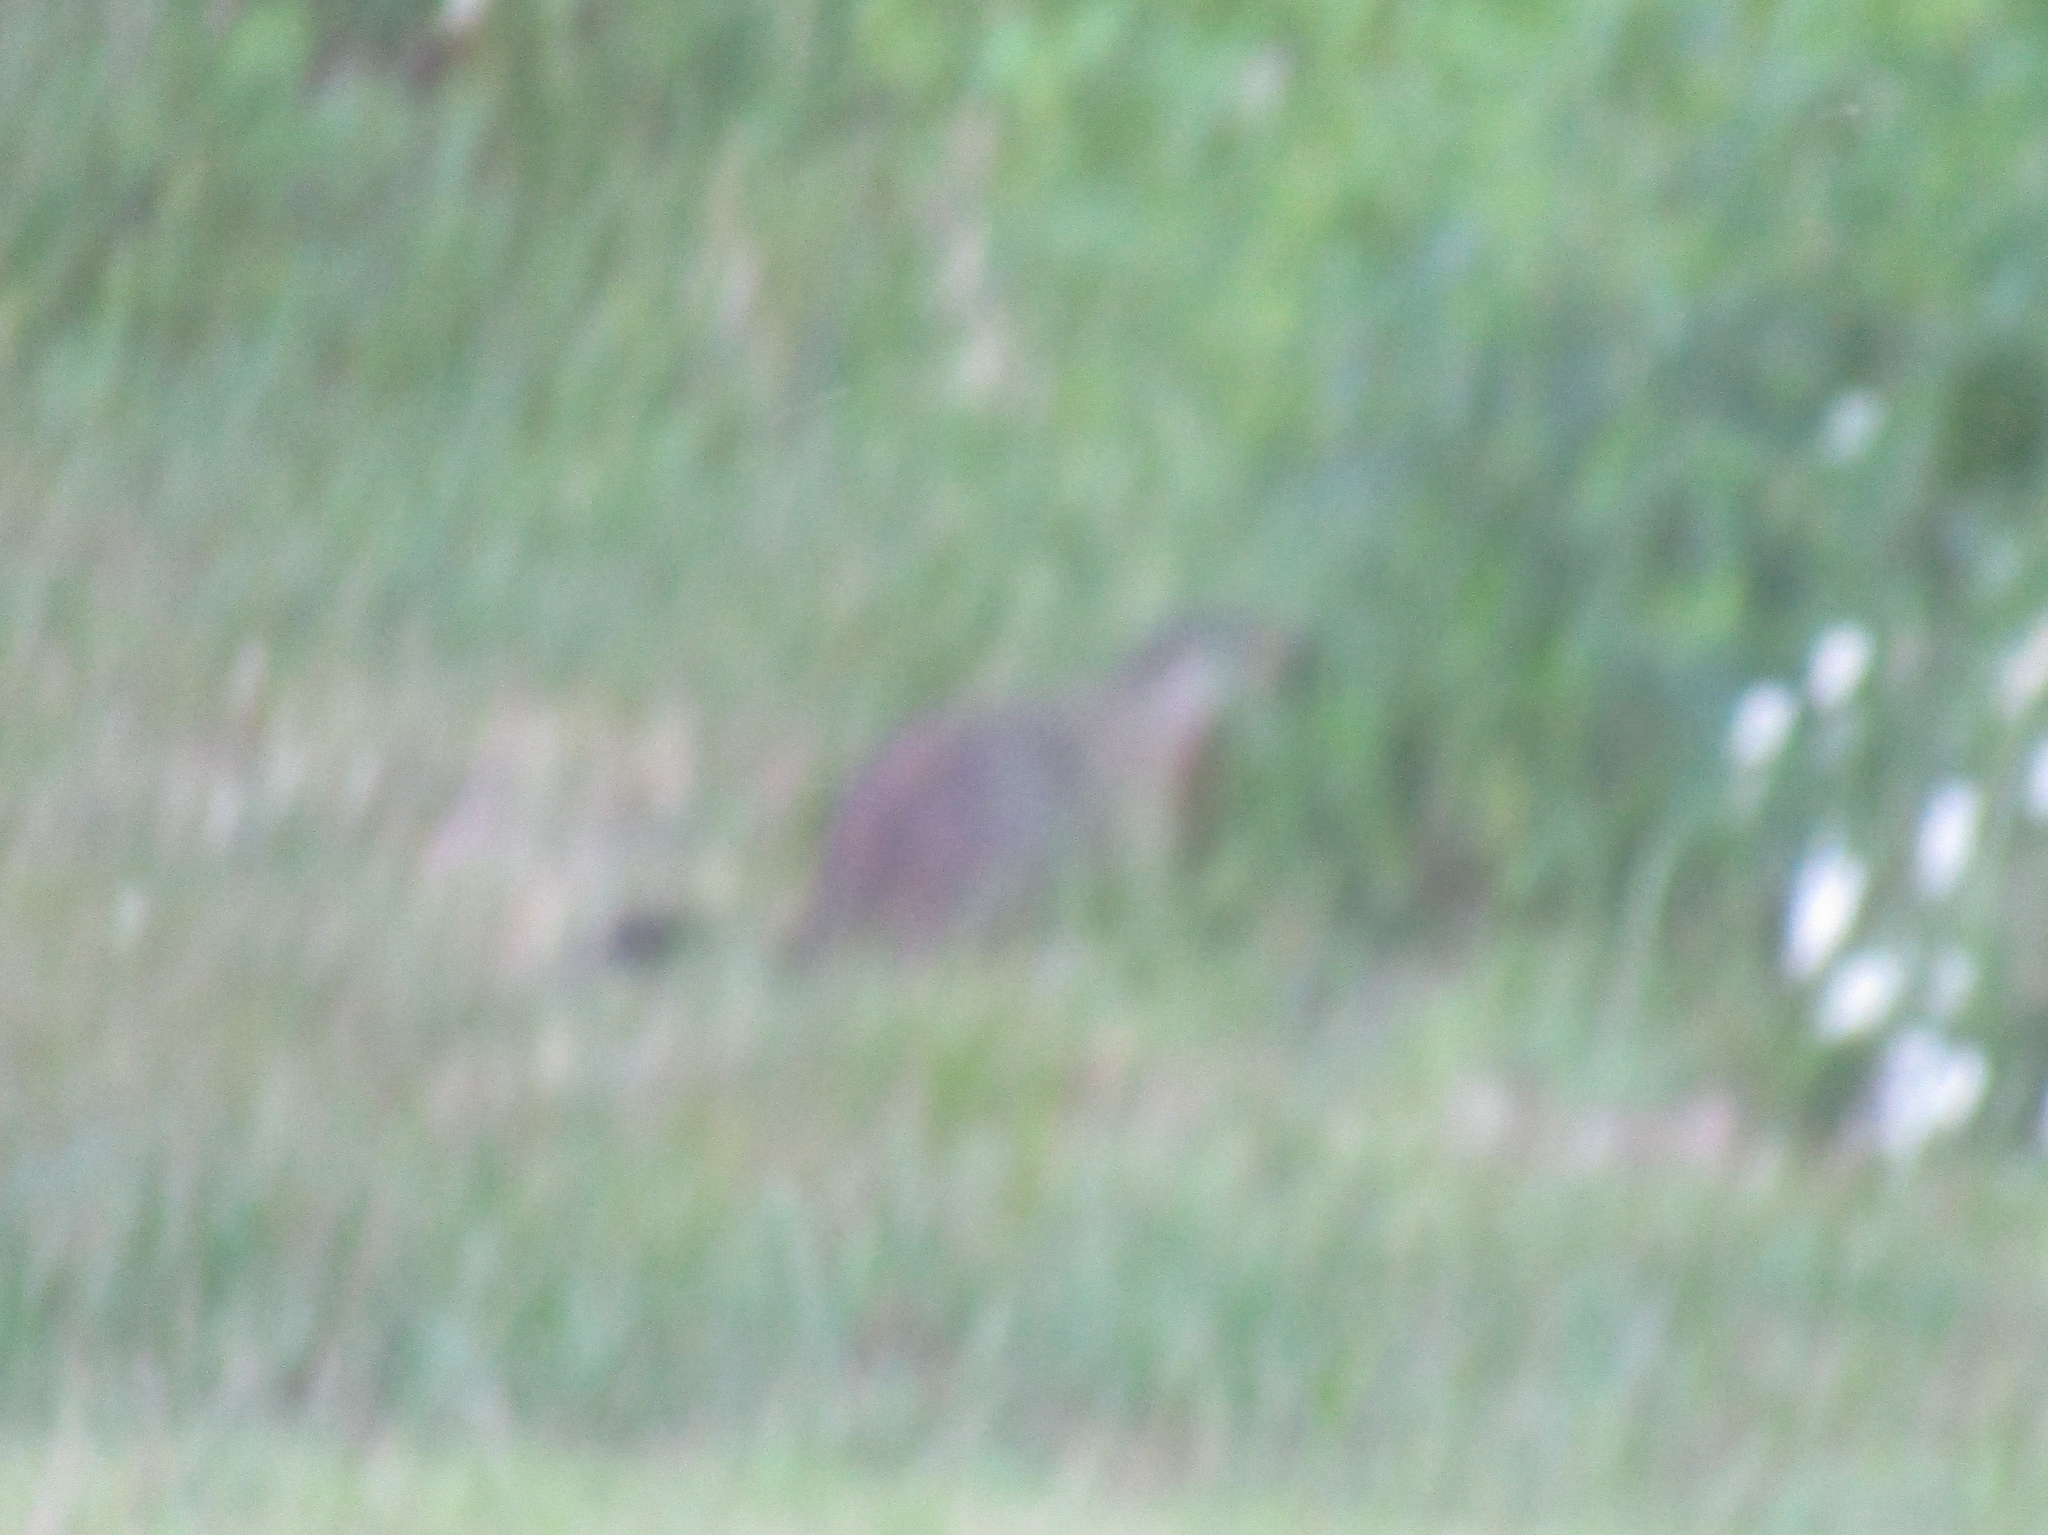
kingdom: Animalia
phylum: Chordata
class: Mammalia
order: Rodentia
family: Sciuridae
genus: Marmota
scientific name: Marmota monax
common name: Groundhog
